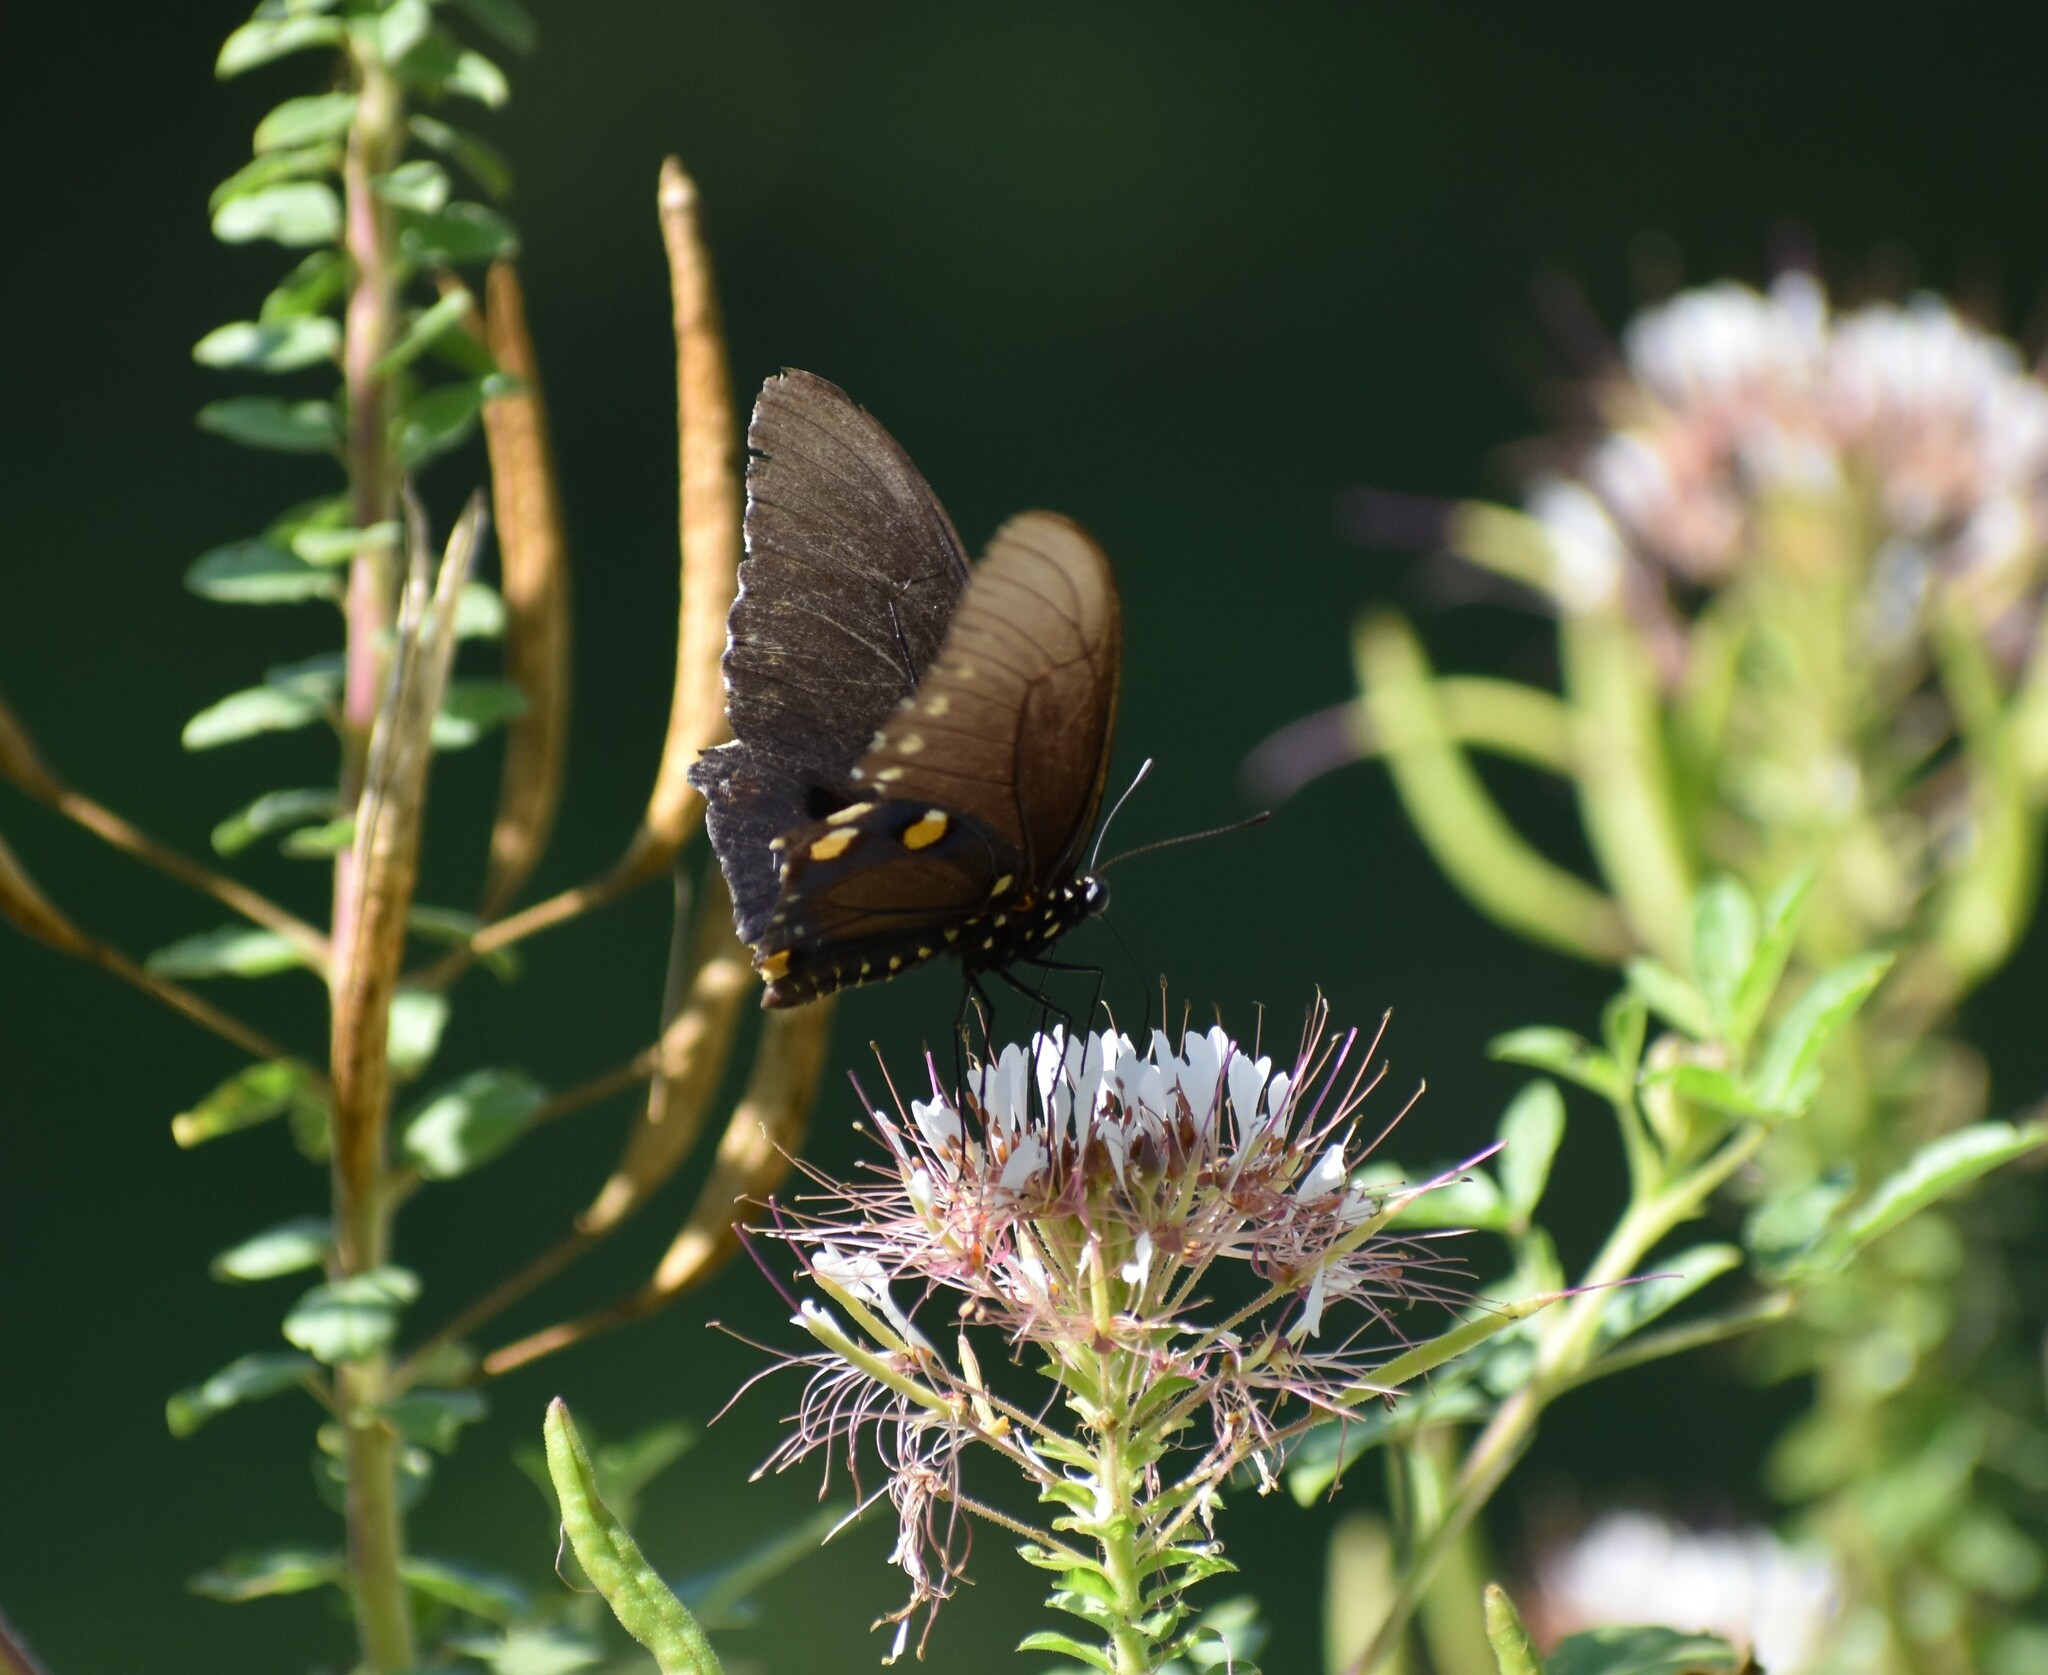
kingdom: Animalia
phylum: Arthropoda
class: Insecta
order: Lepidoptera
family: Papilionidae
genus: Battus
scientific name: Battus philenor
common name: Pipevine swallowtail
